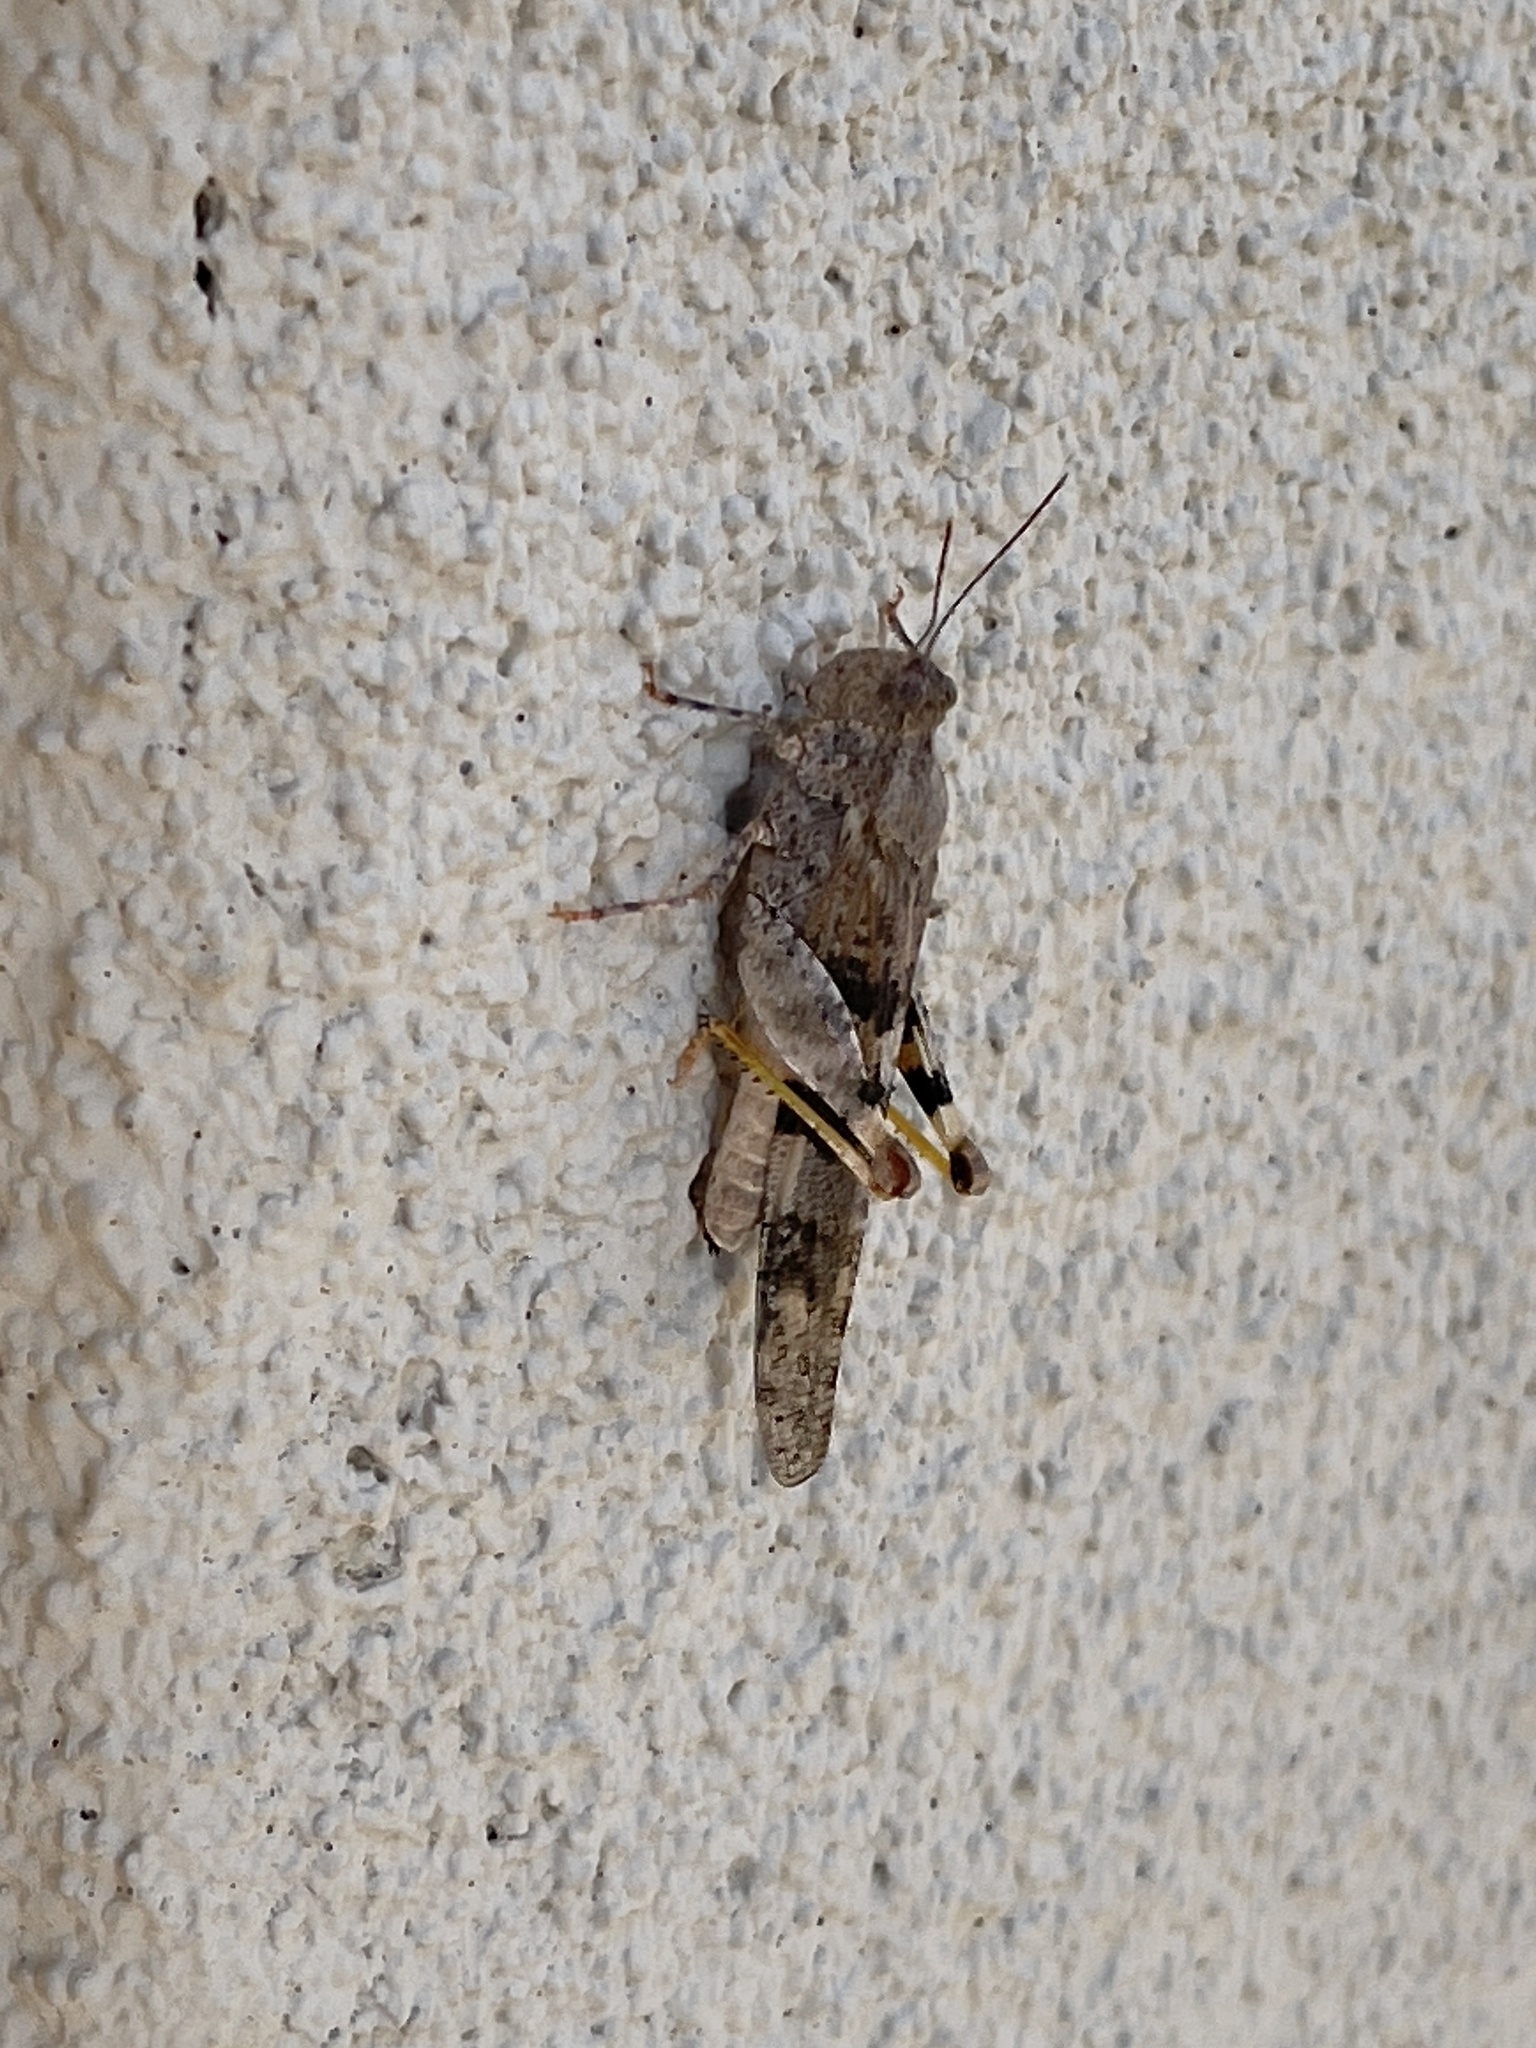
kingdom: Animalia
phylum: Arthropoda
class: Insecta
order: Orthoptera
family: Acrididae
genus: Trimerotropis
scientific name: Trimerotropis pallidipennis
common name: Pallid-winged grasshopper
